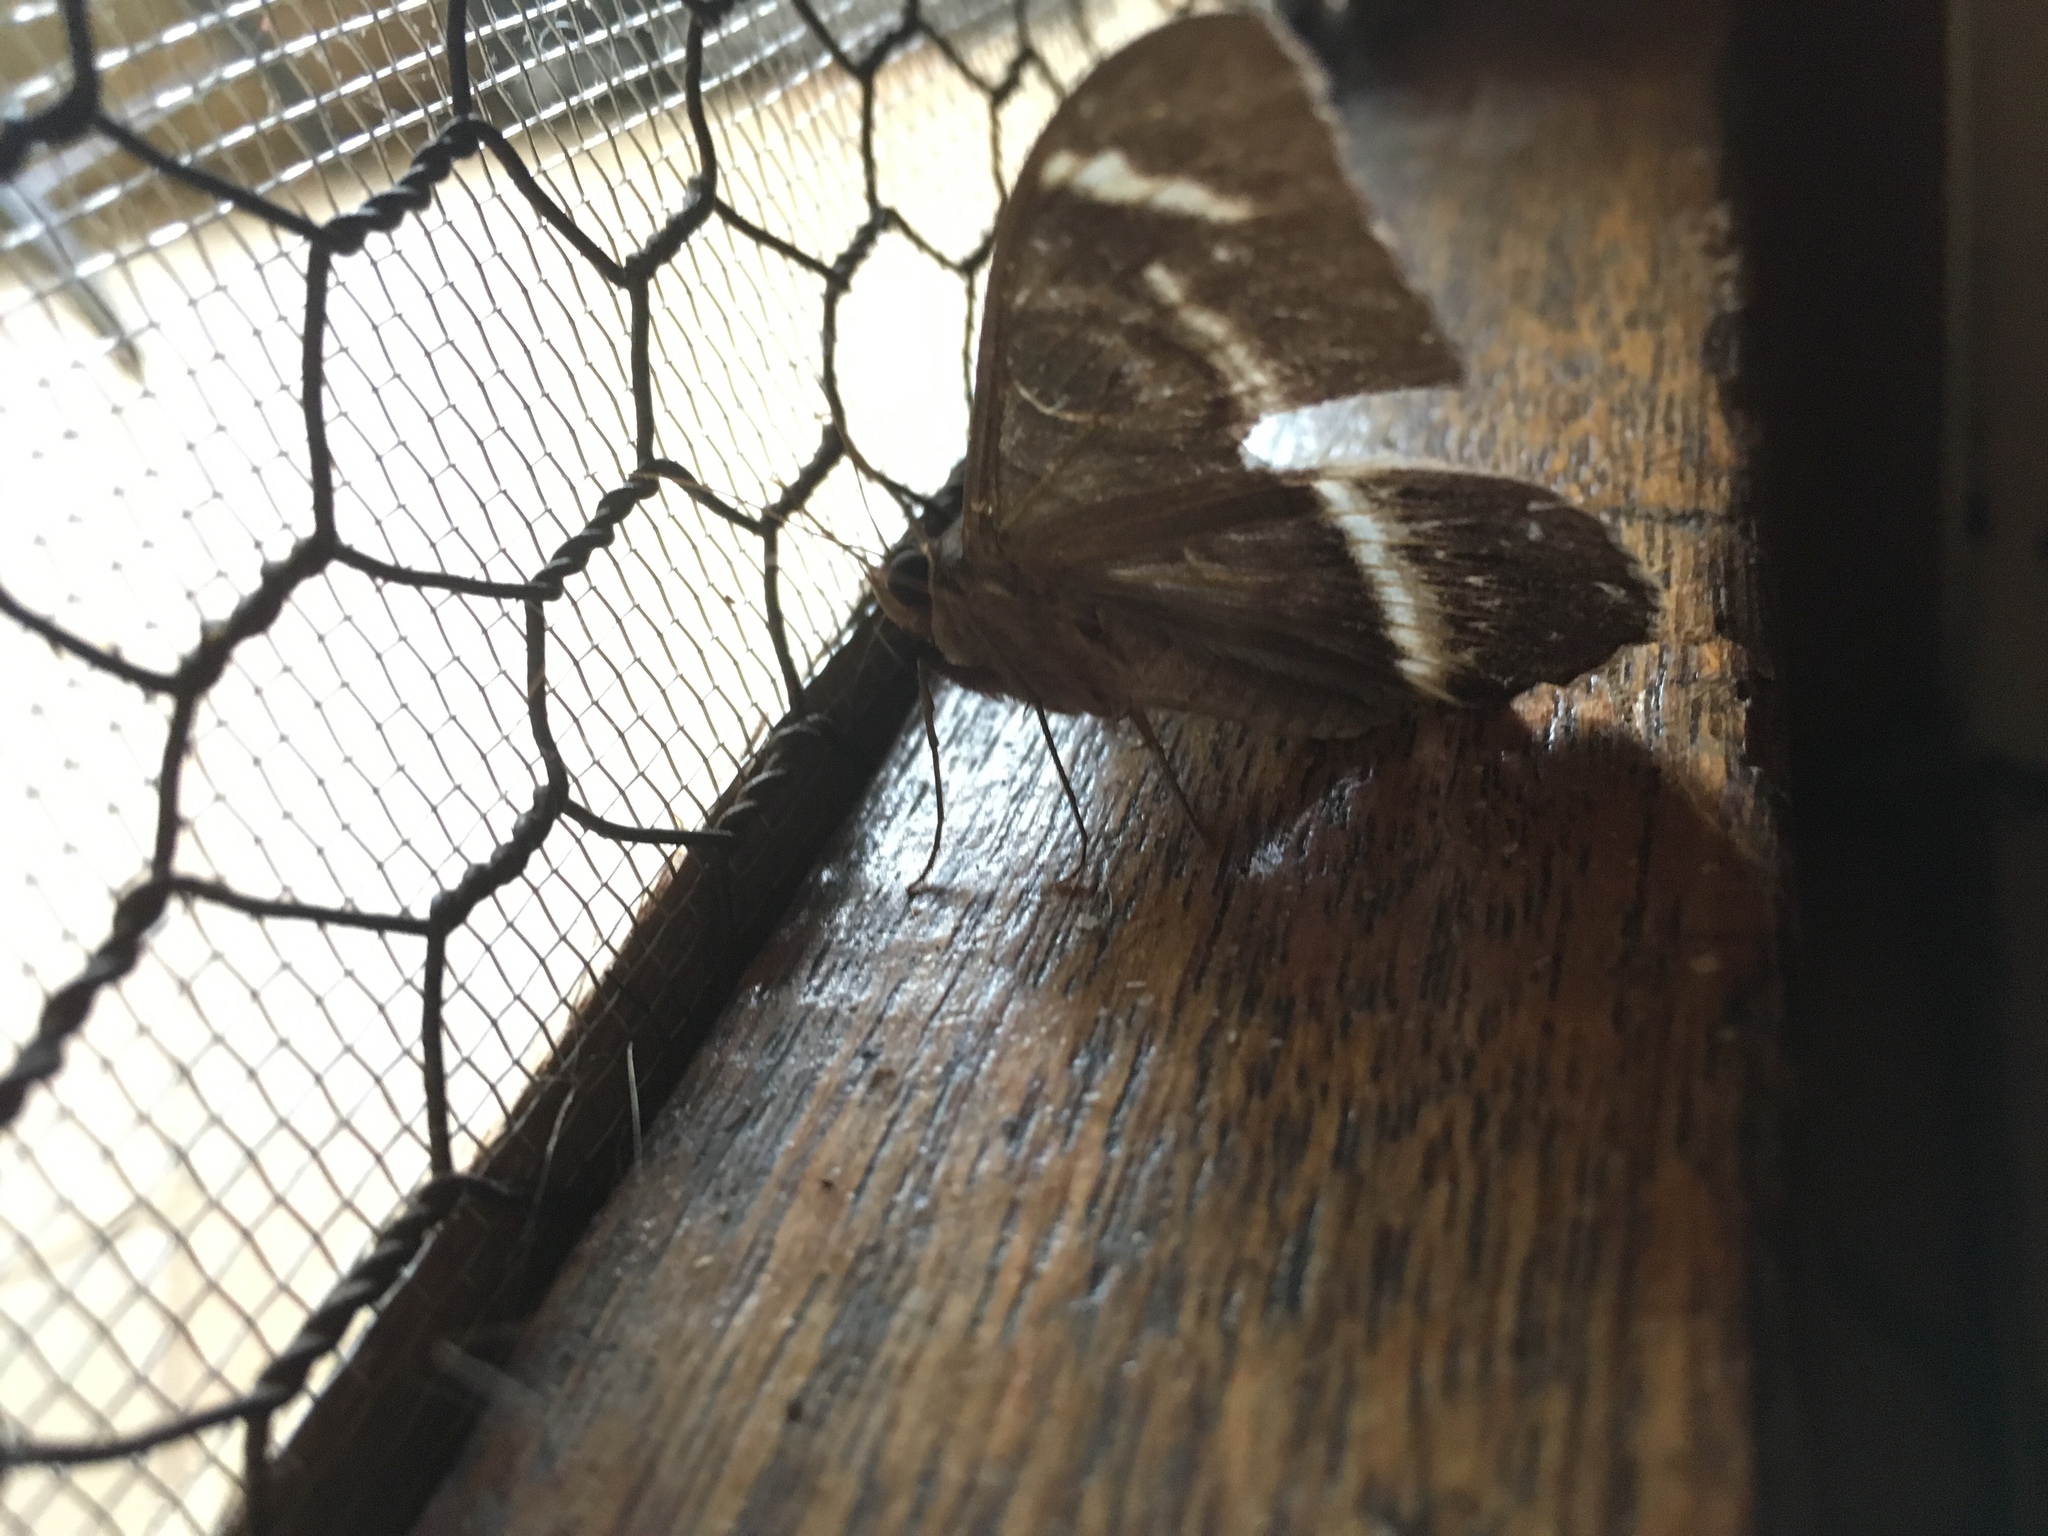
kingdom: Animalia
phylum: Arthropoda
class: Insecta
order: Lepidoptera
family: Erebidae
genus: Cyligramma
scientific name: Cyligramma latona
